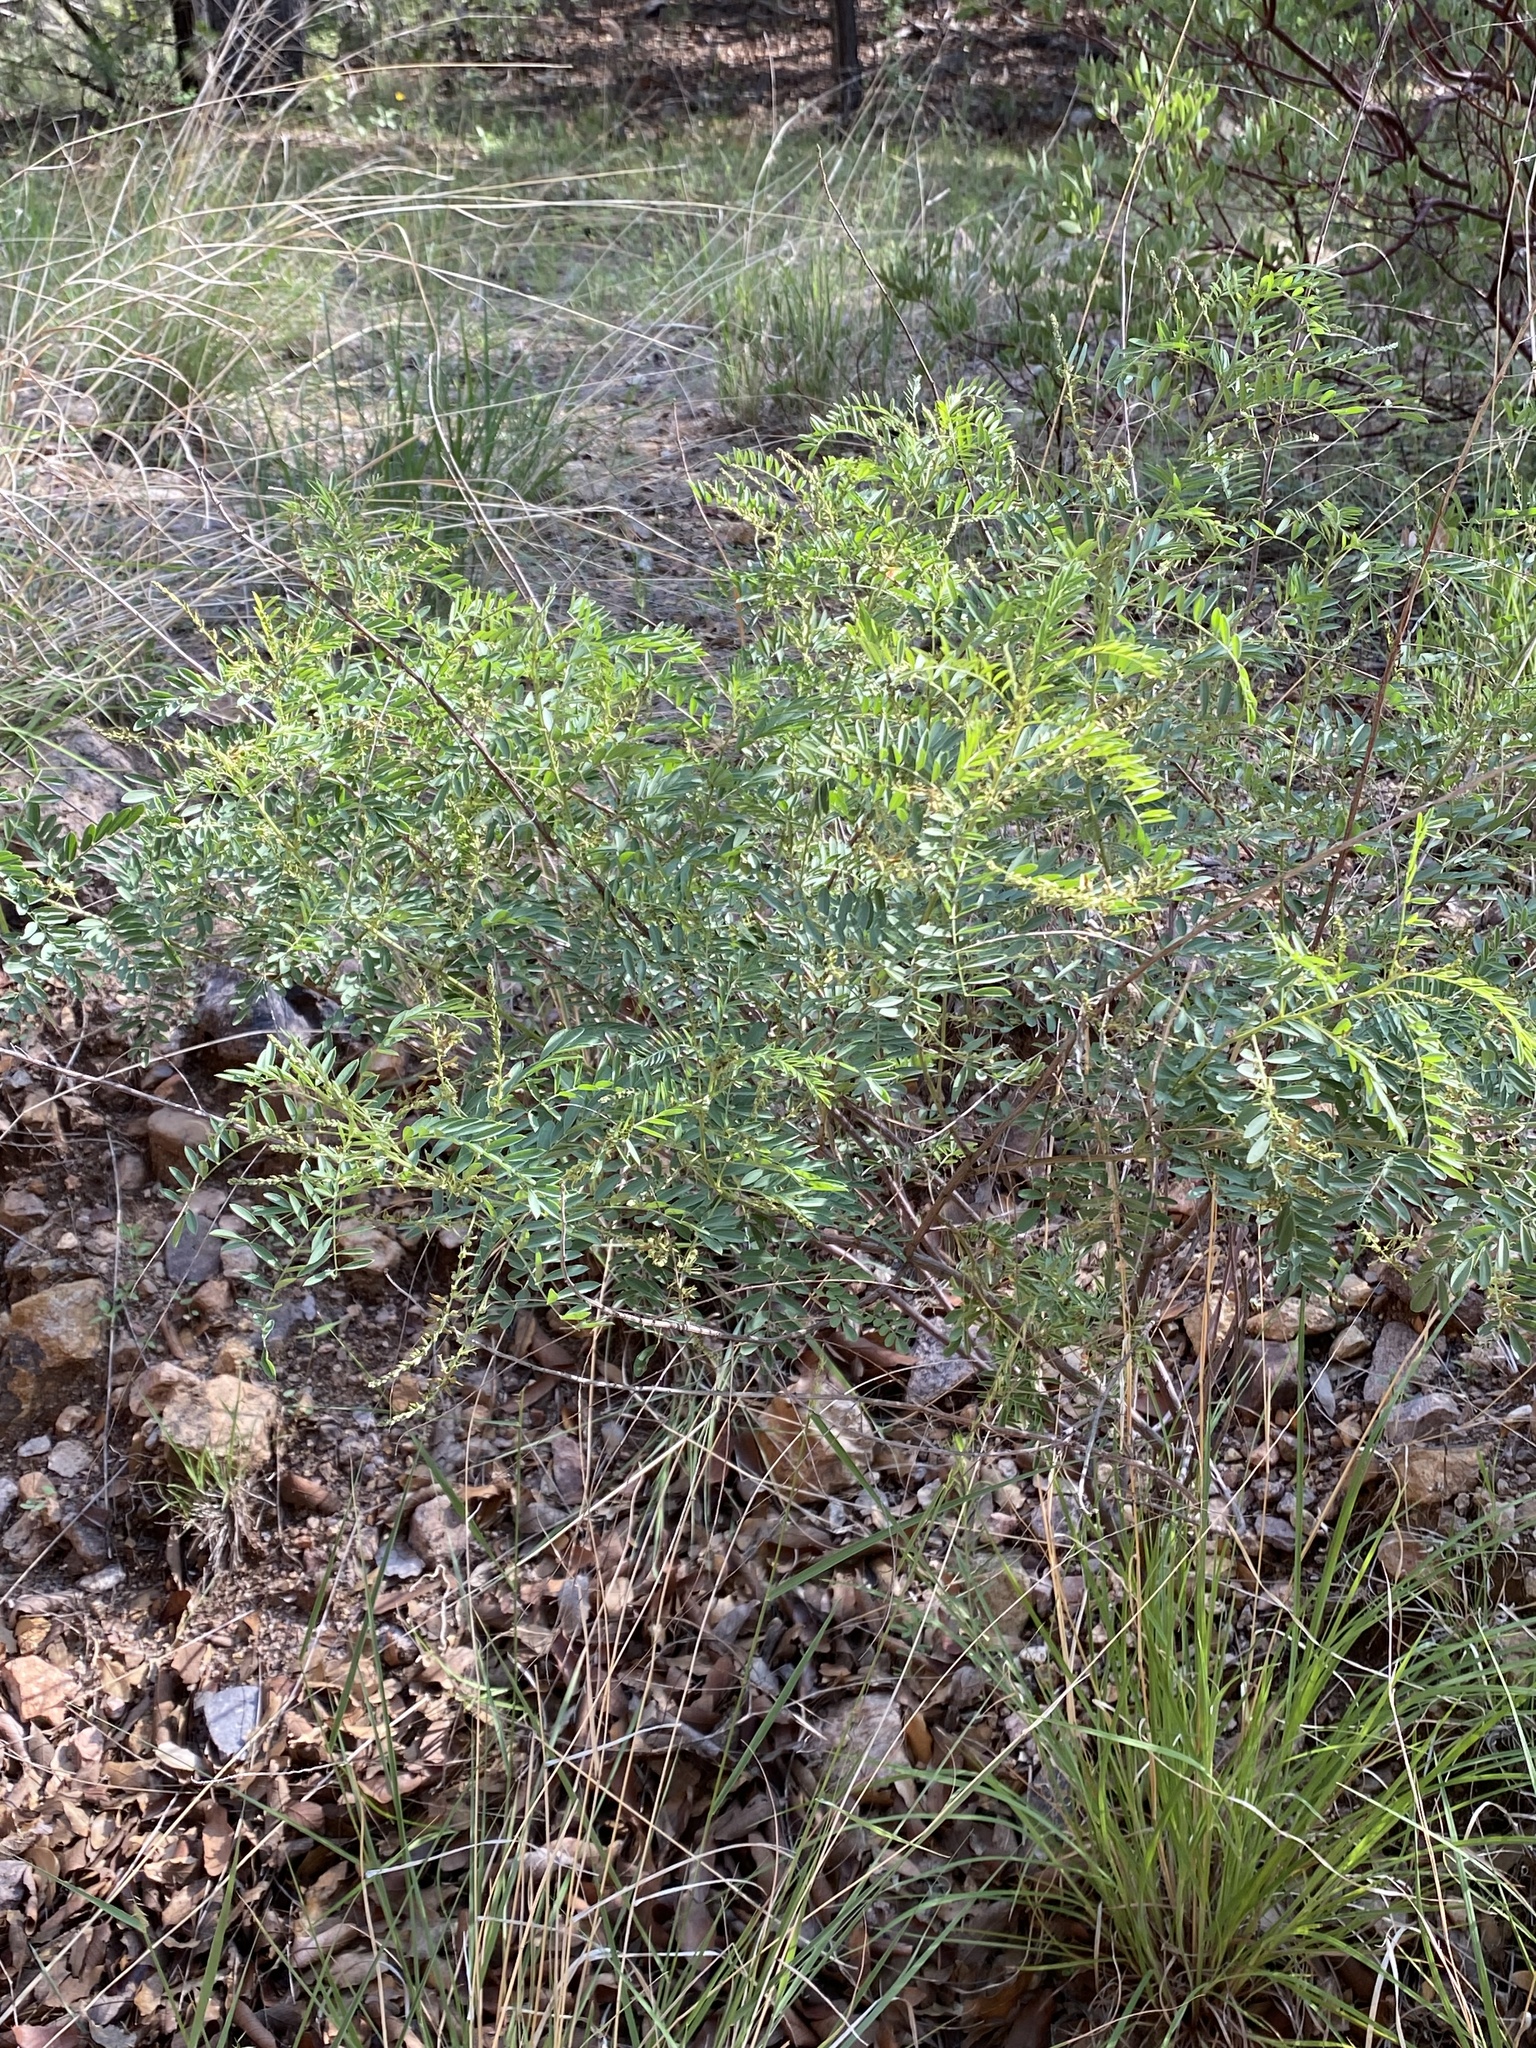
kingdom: Plantae
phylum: Tracheophyta
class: Magnoliopsida
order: Fabales
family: Fabaceae
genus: Indigofera
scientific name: Indigofera sphaerocarpa
